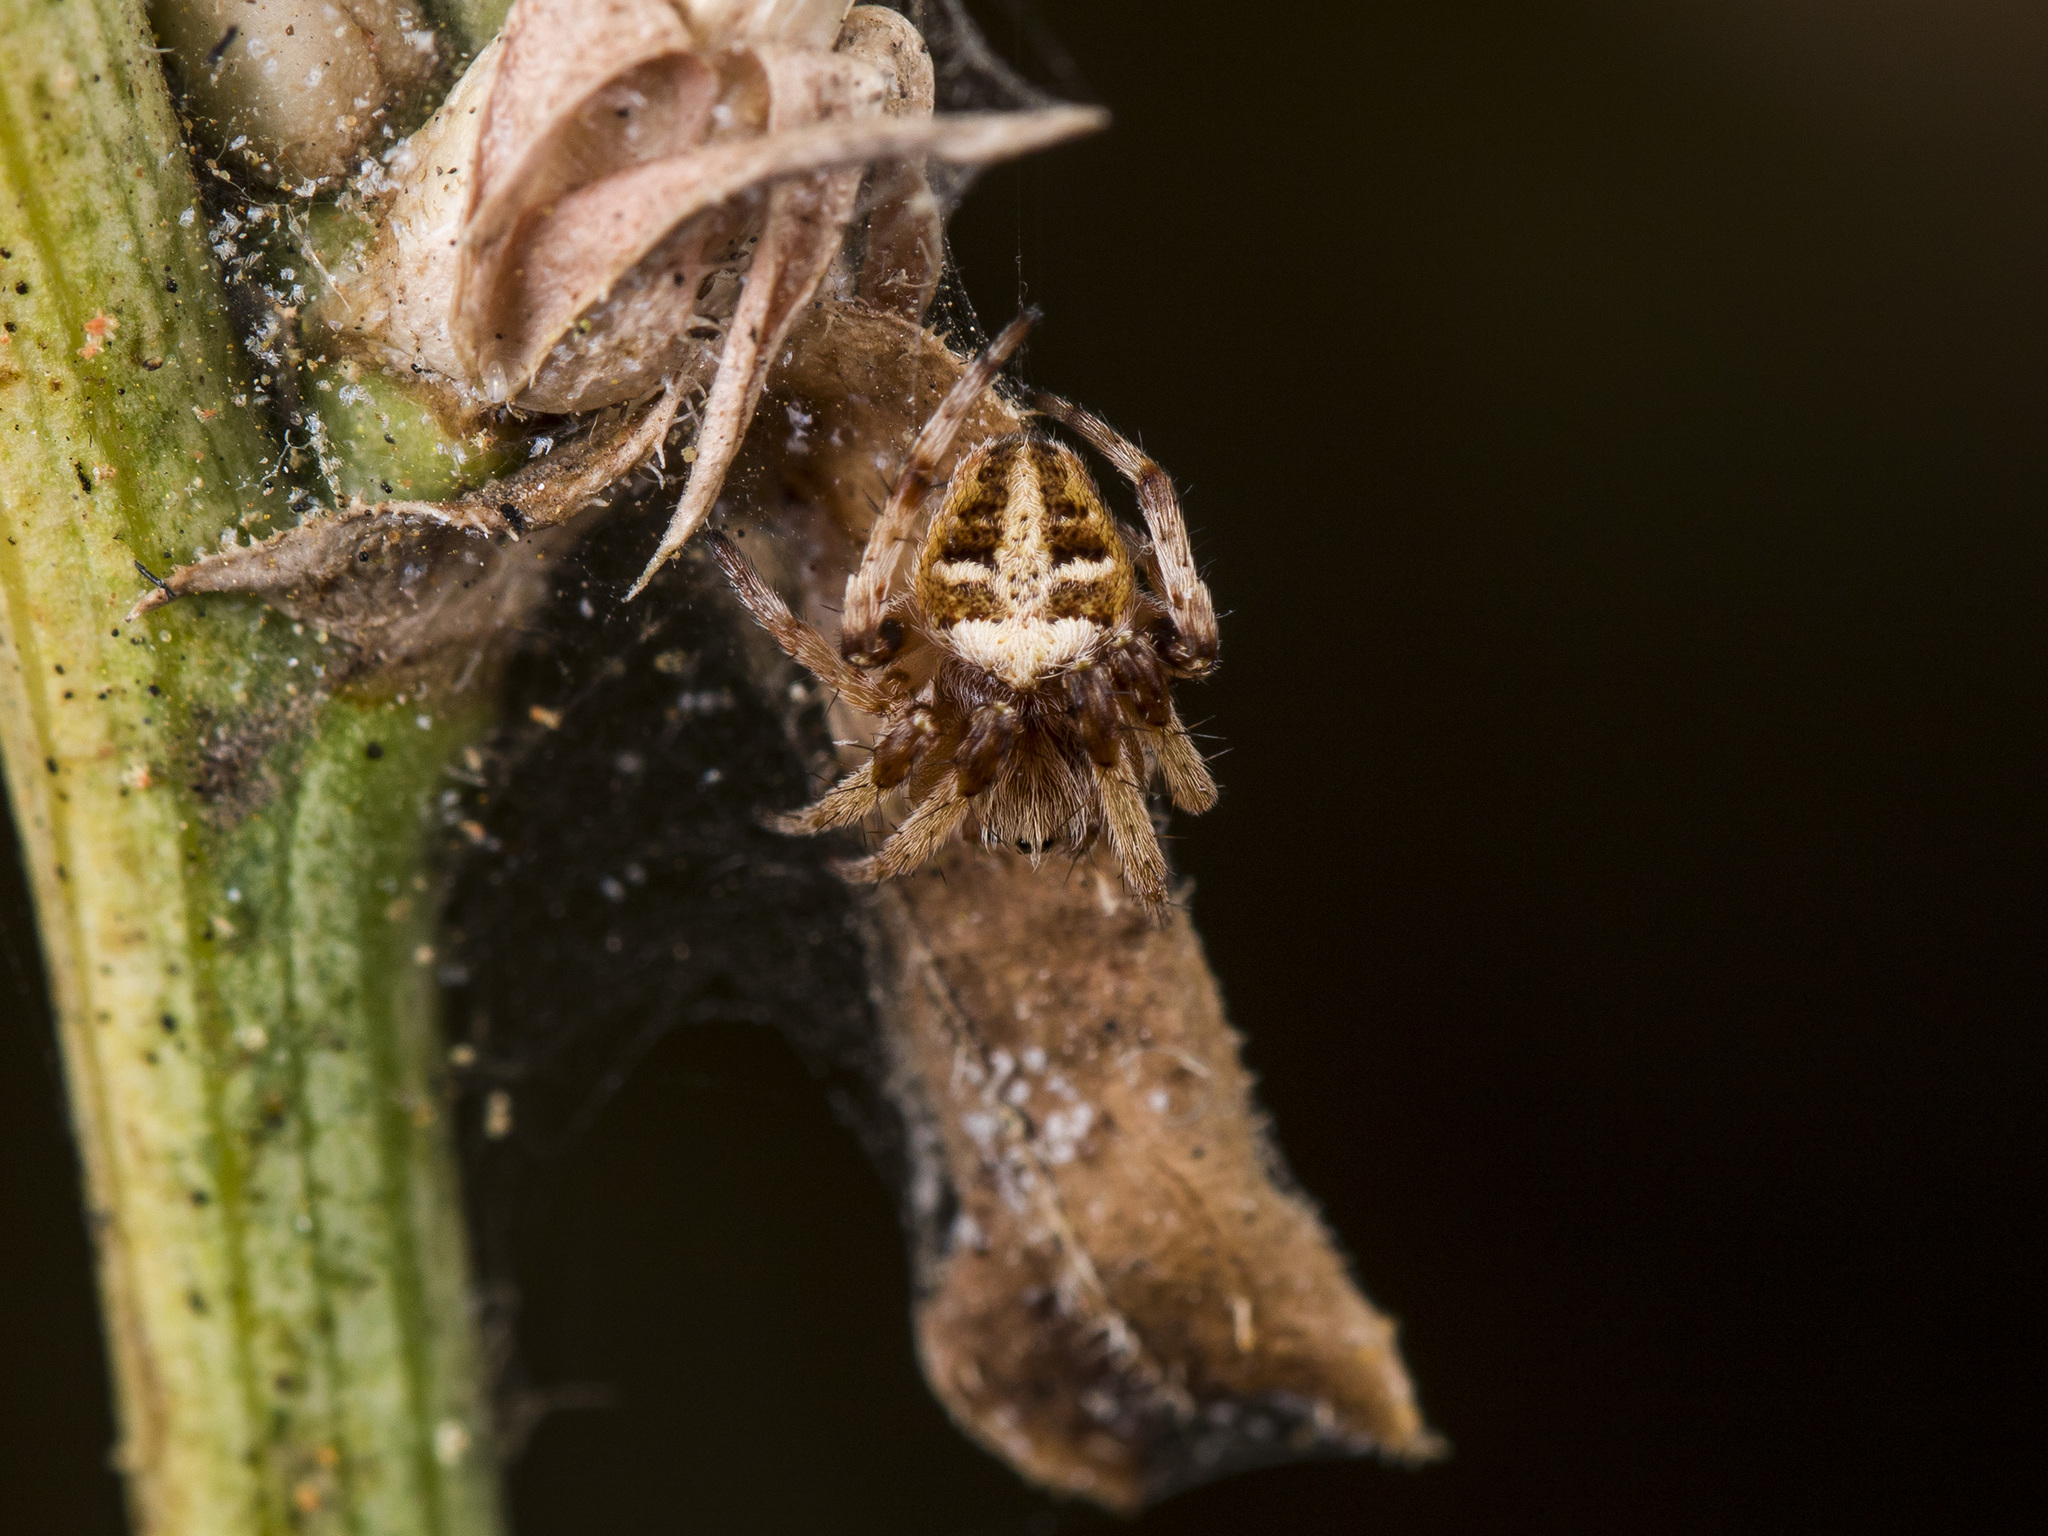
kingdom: Animalia
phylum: Arthropoda
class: Arachnida
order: Araneae
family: Araneidae
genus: Agalenatea
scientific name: Agalenatea redii
